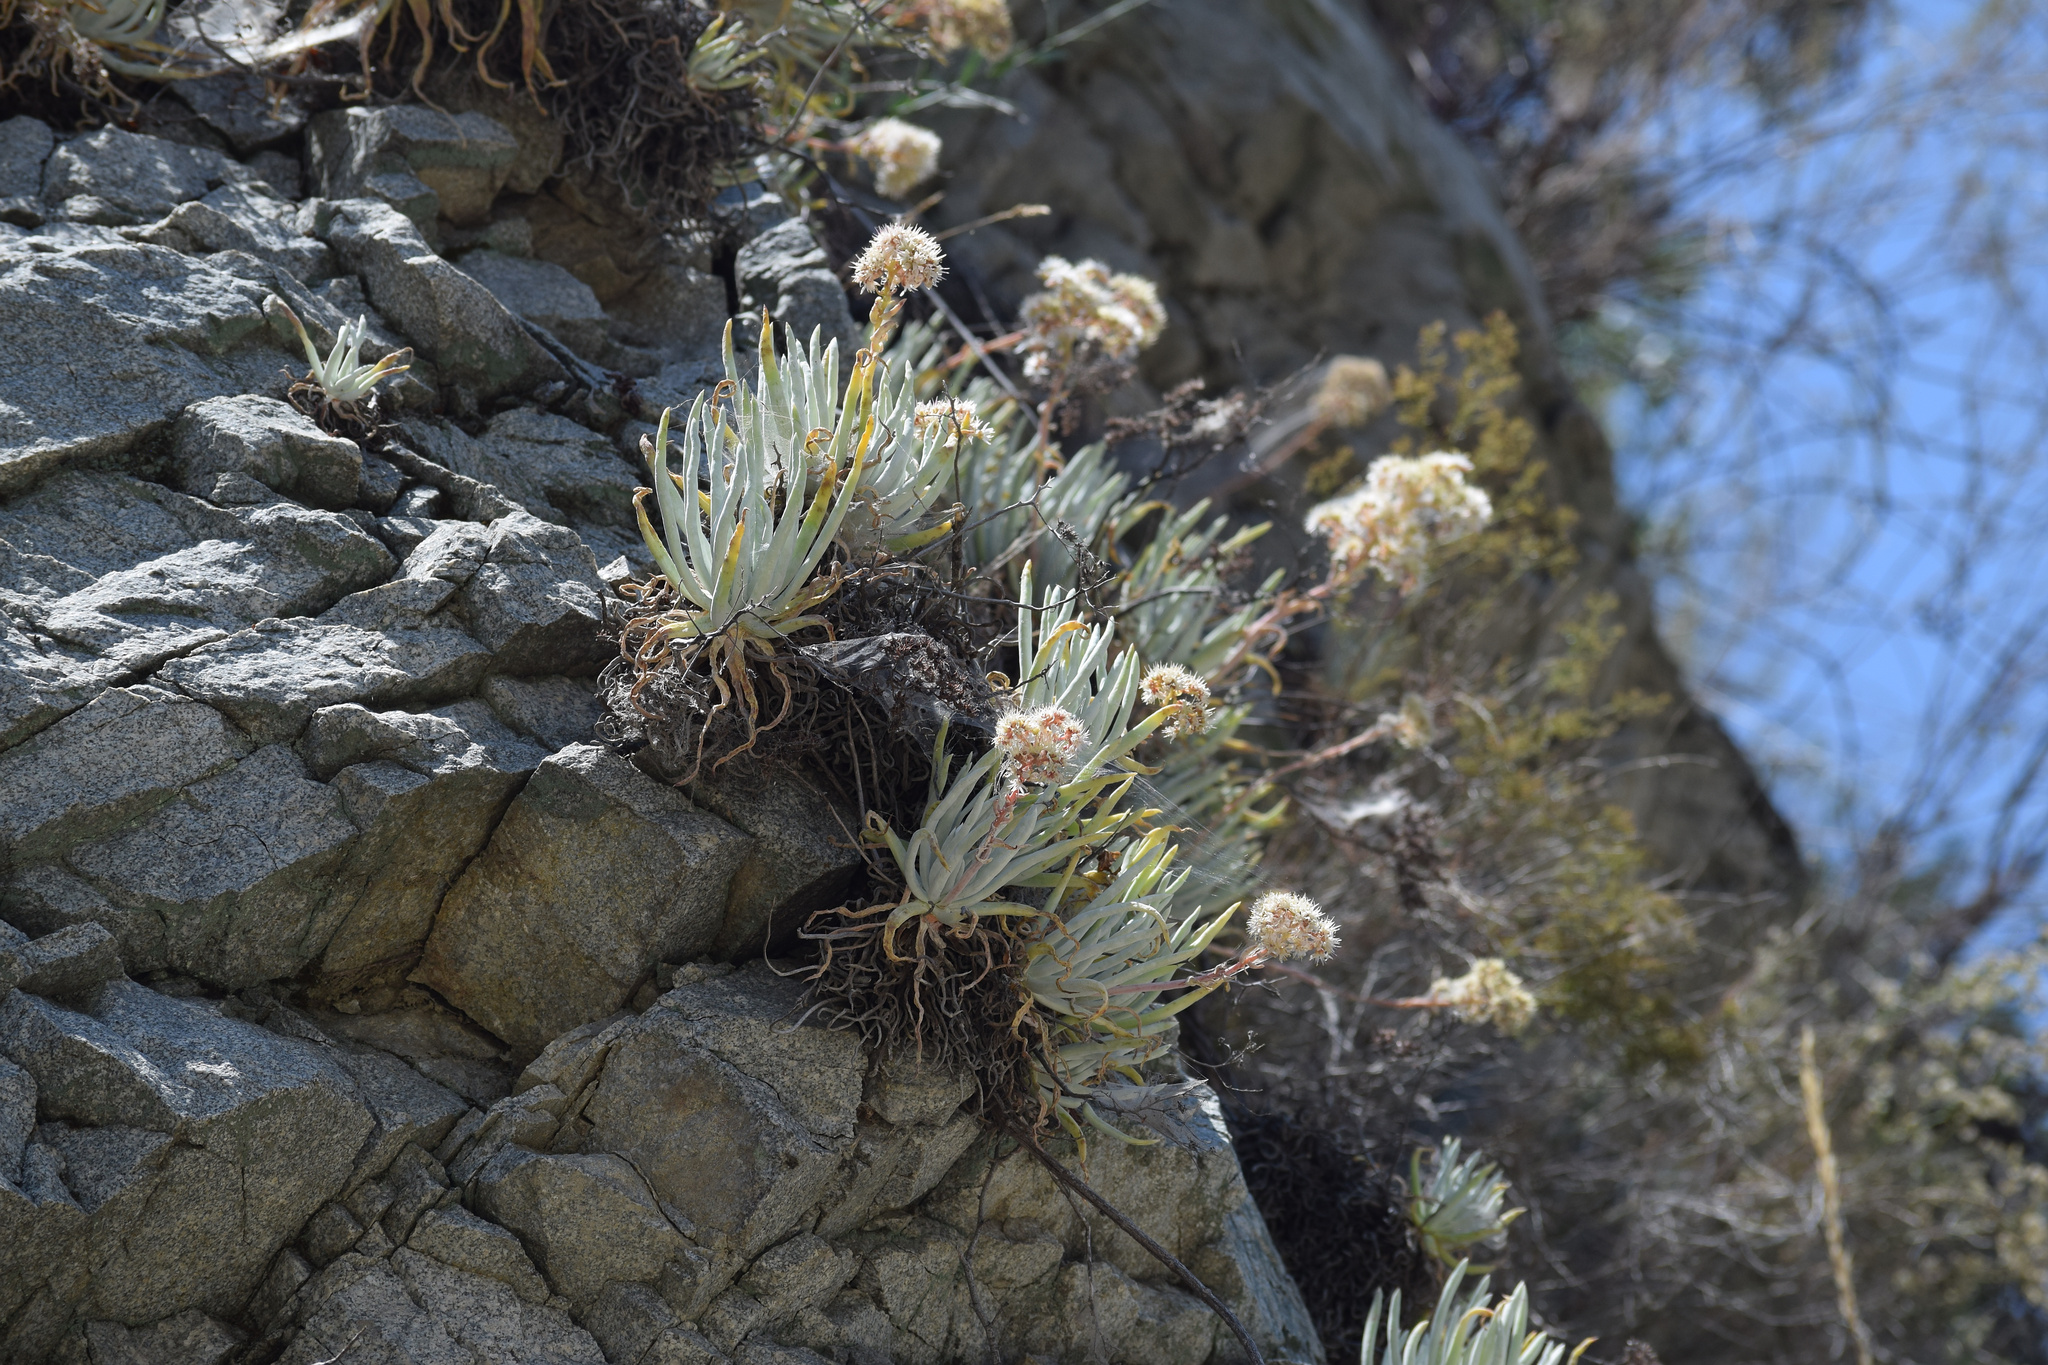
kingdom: Plantae
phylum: Tracheophyta
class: Magnoliopsida
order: Saxifragales
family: Crassulaceae
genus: Dudleya
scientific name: Dudleya densiflora
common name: San gabriel mountains dudleya
